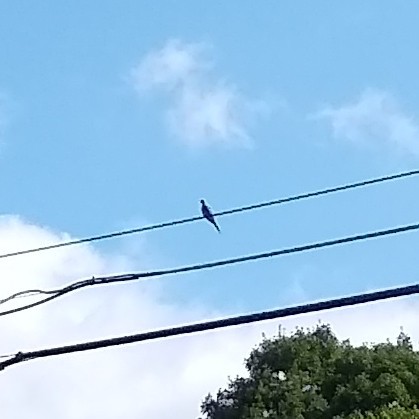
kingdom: Animalia
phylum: Chordata
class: Aves
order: Columbiformes
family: Columbidae
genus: Zenaida
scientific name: Zenaida macroura
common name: Mourning dove
